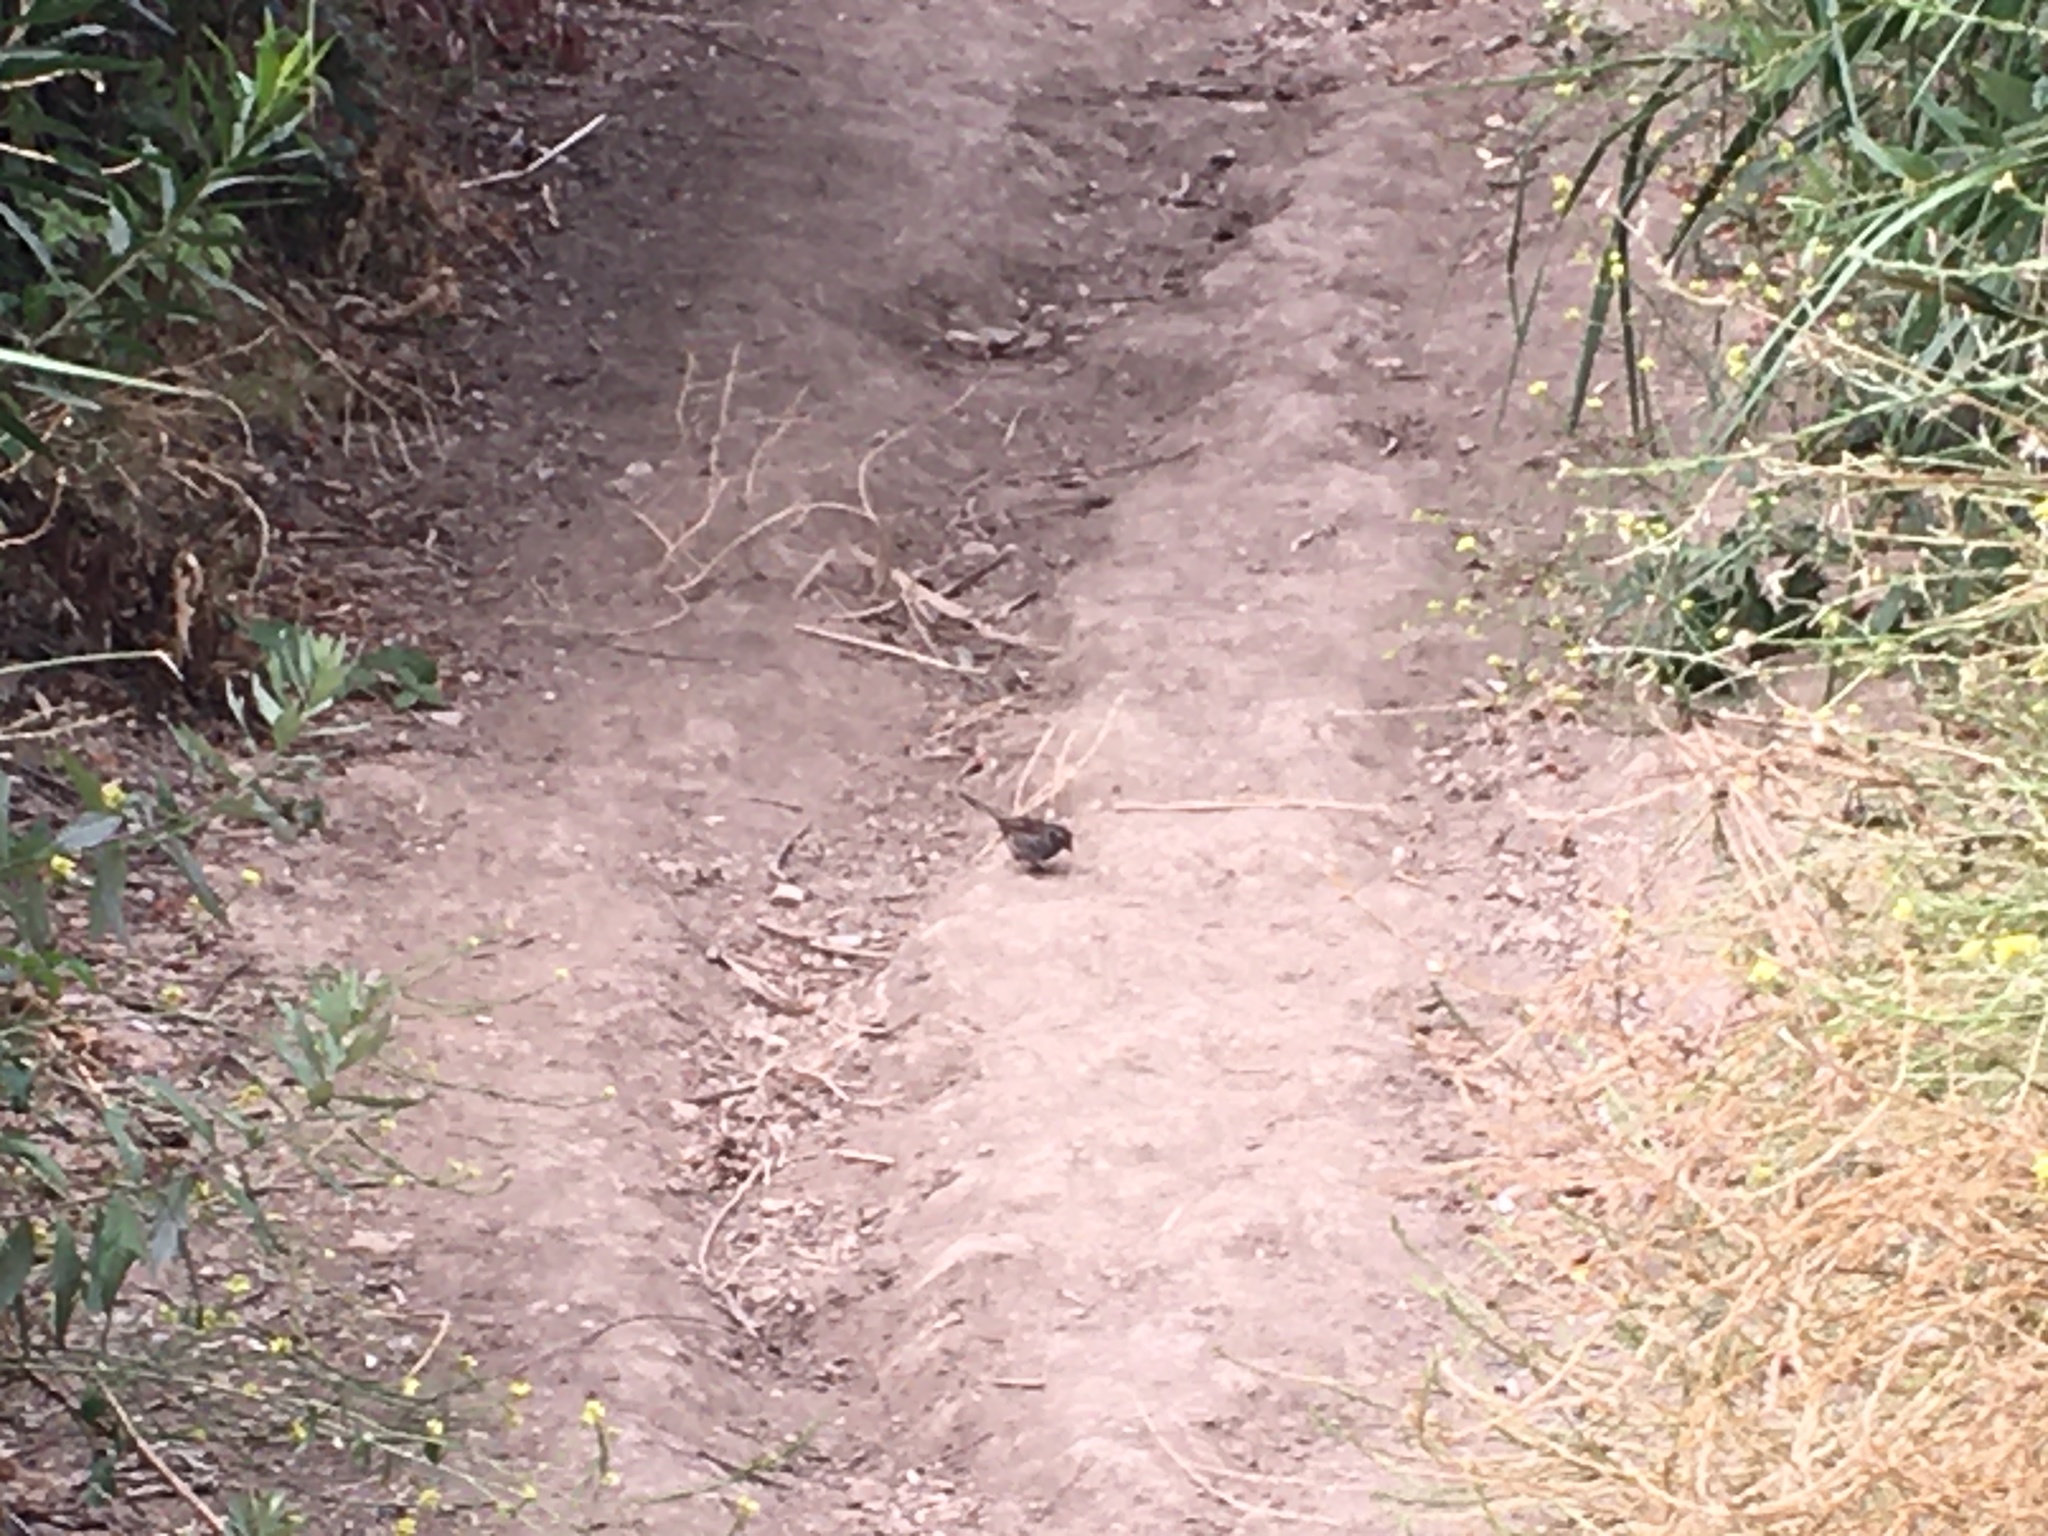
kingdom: Animalia
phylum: Chordata
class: Aves
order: Passeriformes
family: Passerellidae
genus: Melospiza
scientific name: Melospiza melodia
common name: Song sparrow
